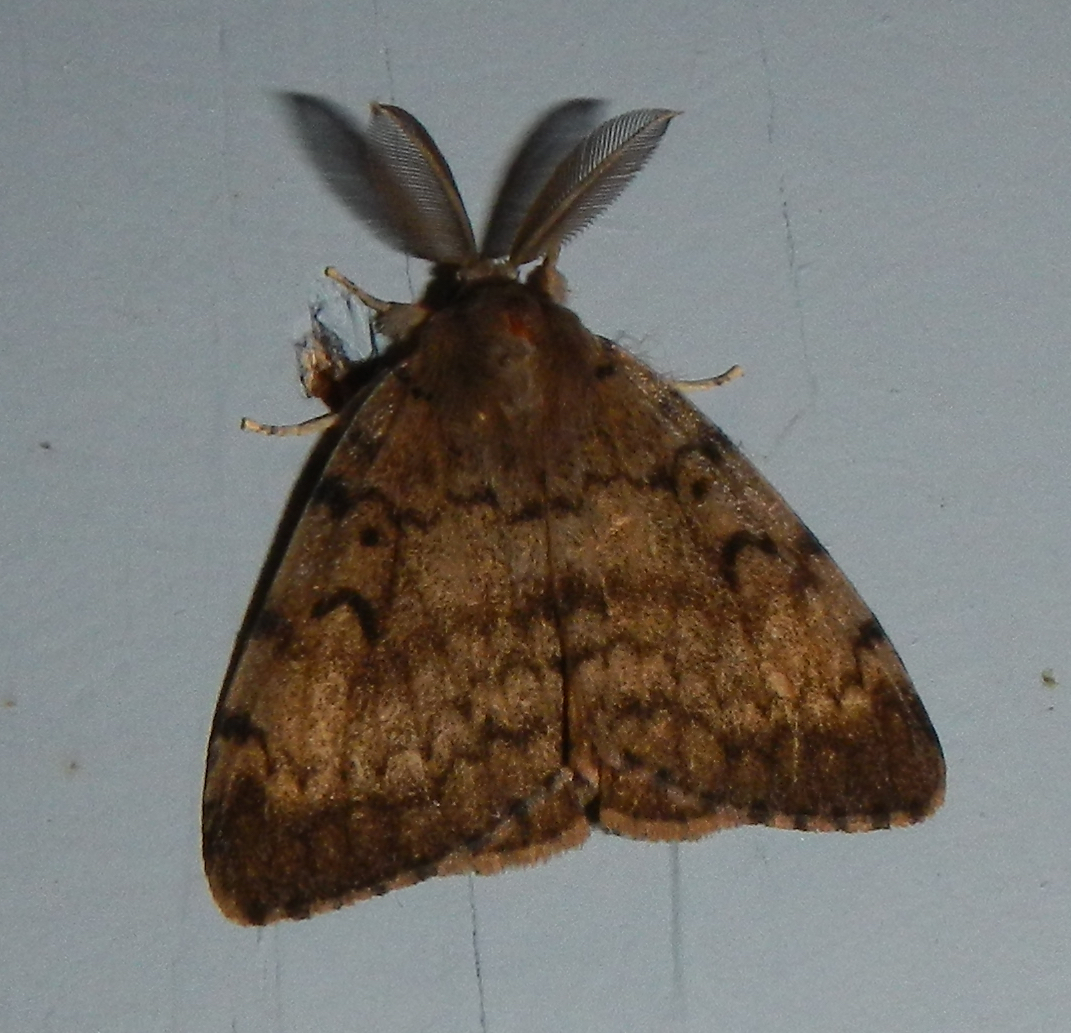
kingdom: Animalia
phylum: Arthropoda
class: Insecta
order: Lepidoptera
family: Erebidae
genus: Lymantria
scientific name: Lymantria dispar
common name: Gypsy moth
